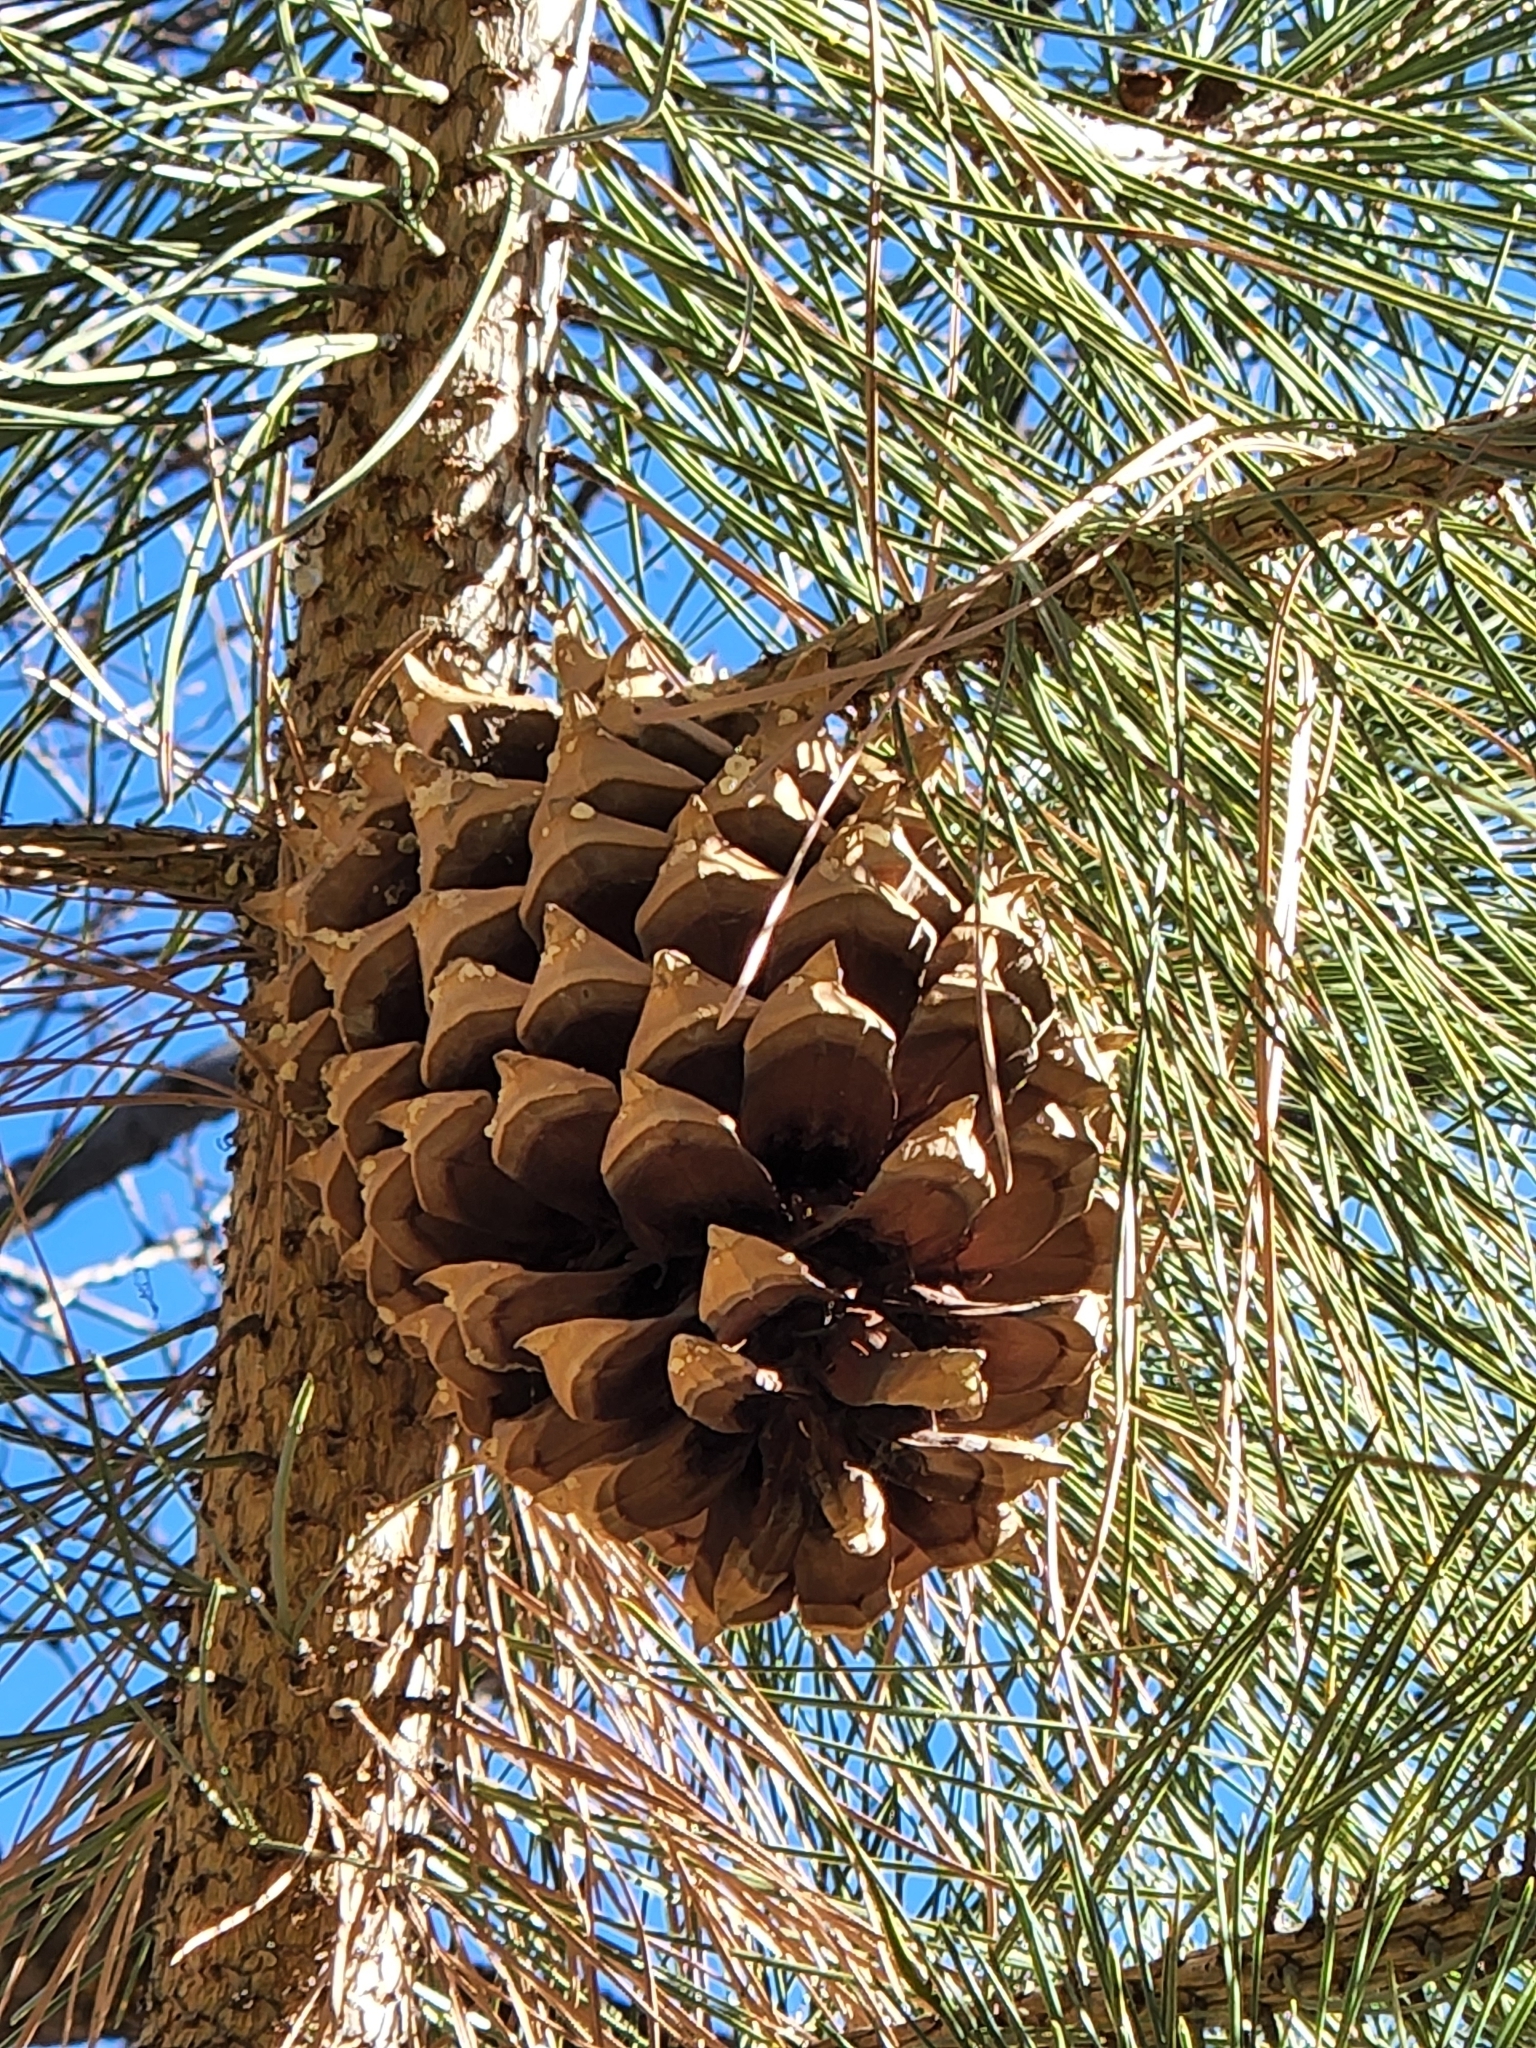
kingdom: Plantae
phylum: Tracheophyta
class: Pinopsida
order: Pinales
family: Pinaceae
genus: Pinus
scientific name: Pinus coulteri
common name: Coulter pine
